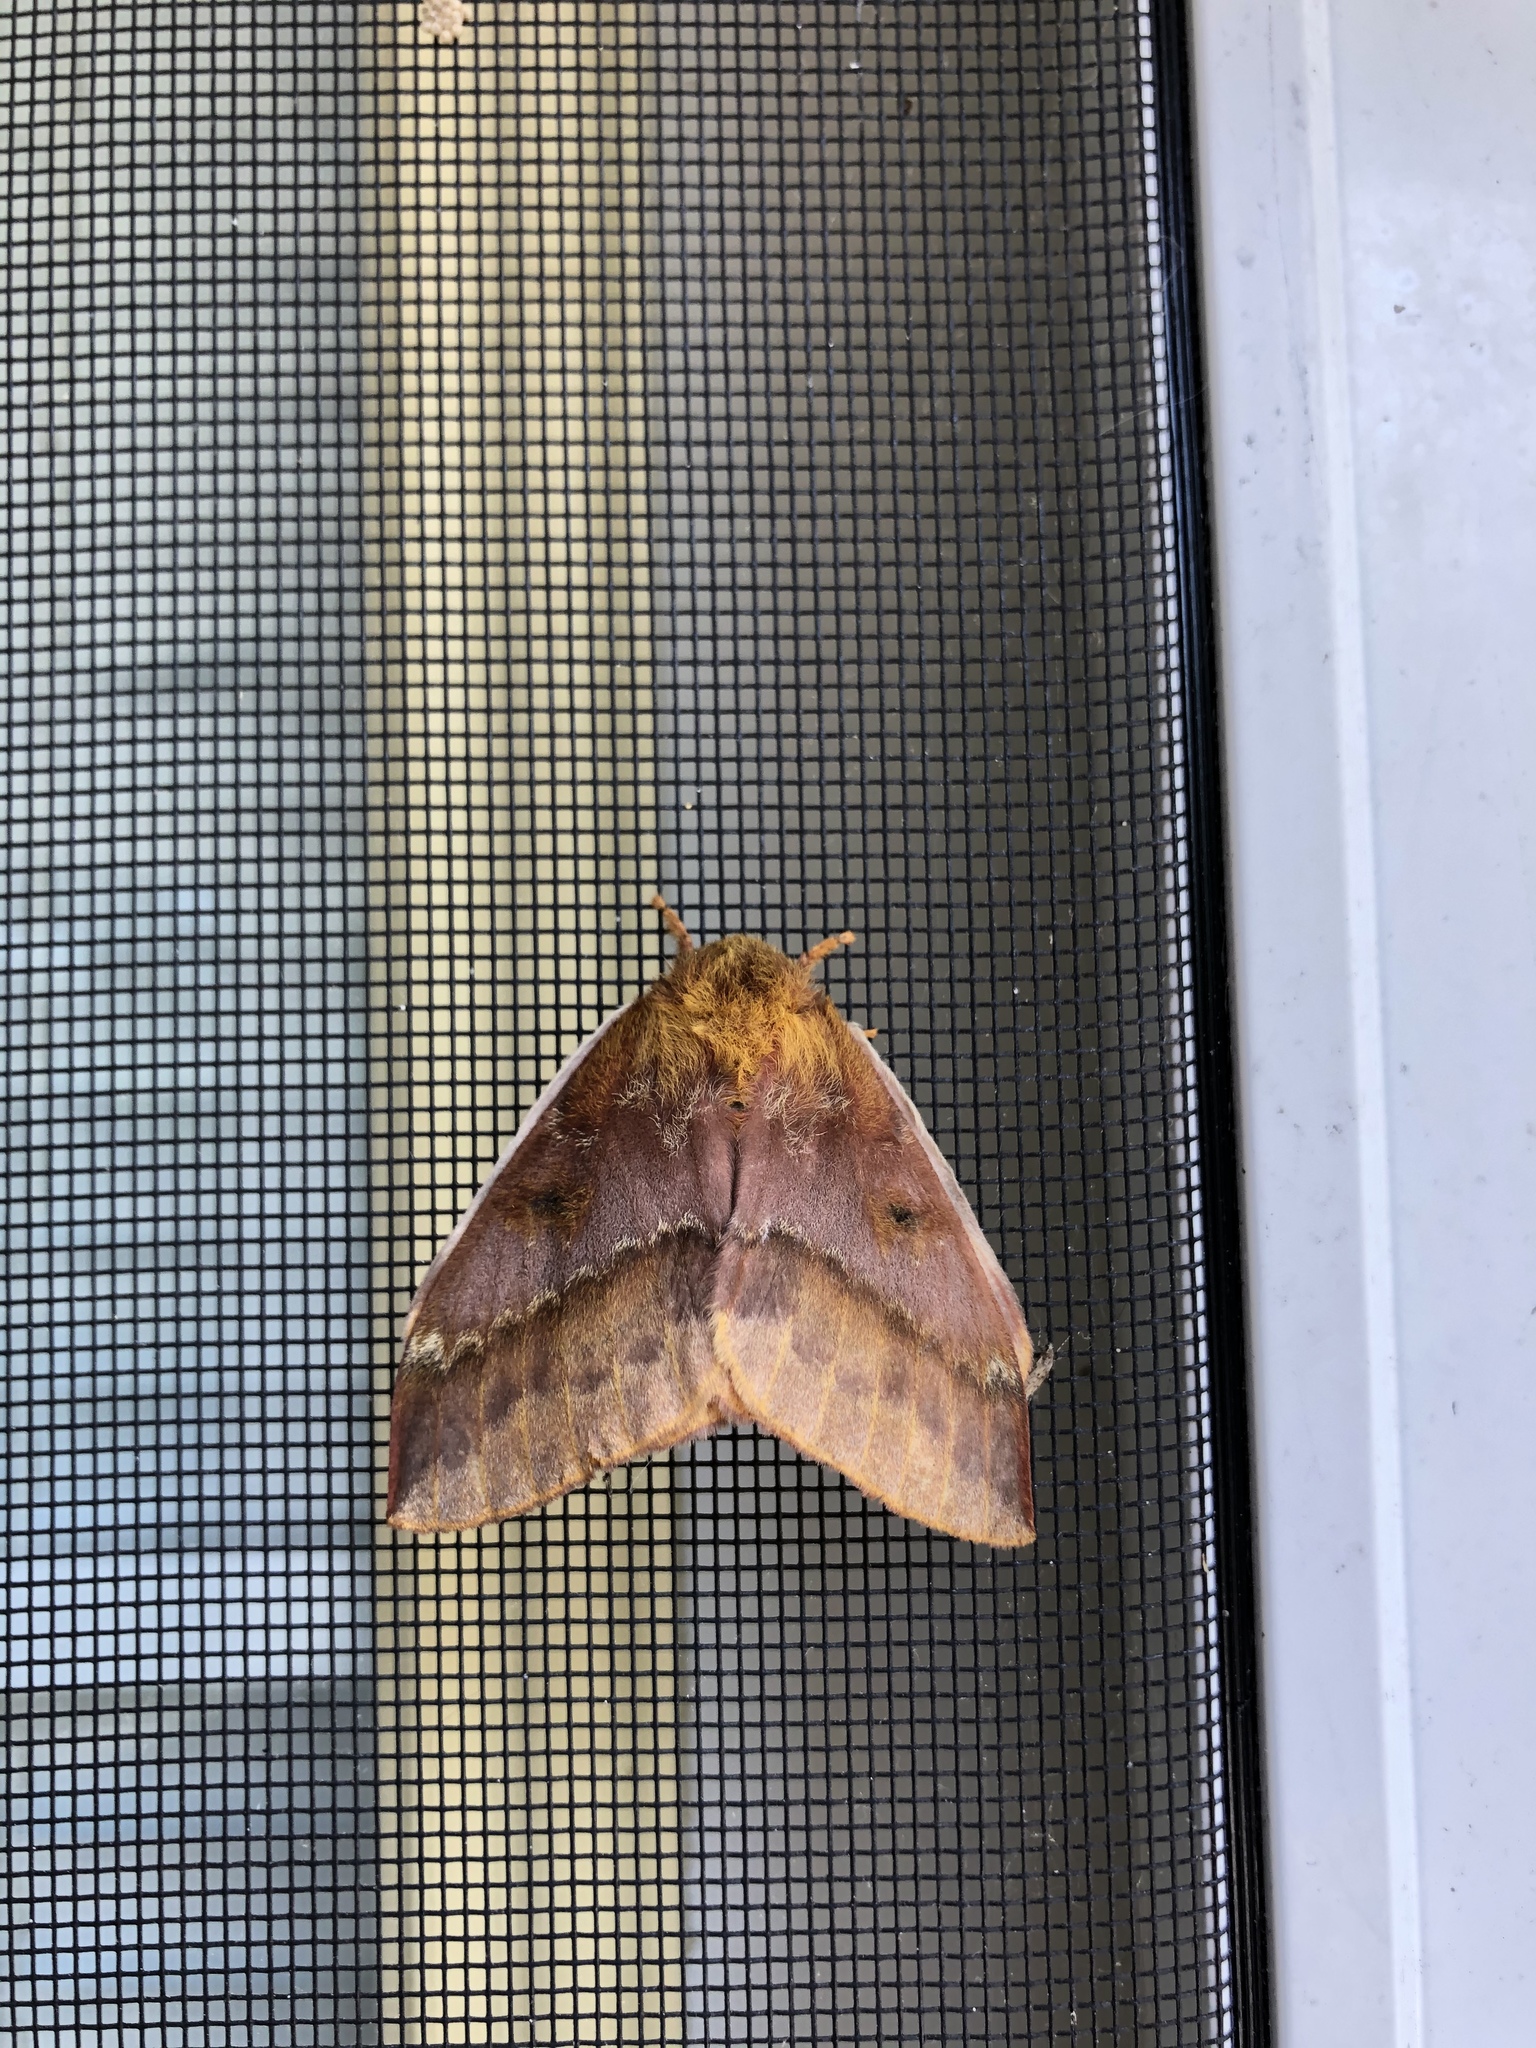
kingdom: Animalia
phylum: Arthropoda
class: Insecta
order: Lepidoptera
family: Saturniidae
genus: Automeris
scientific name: Automeris io
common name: Io moth
